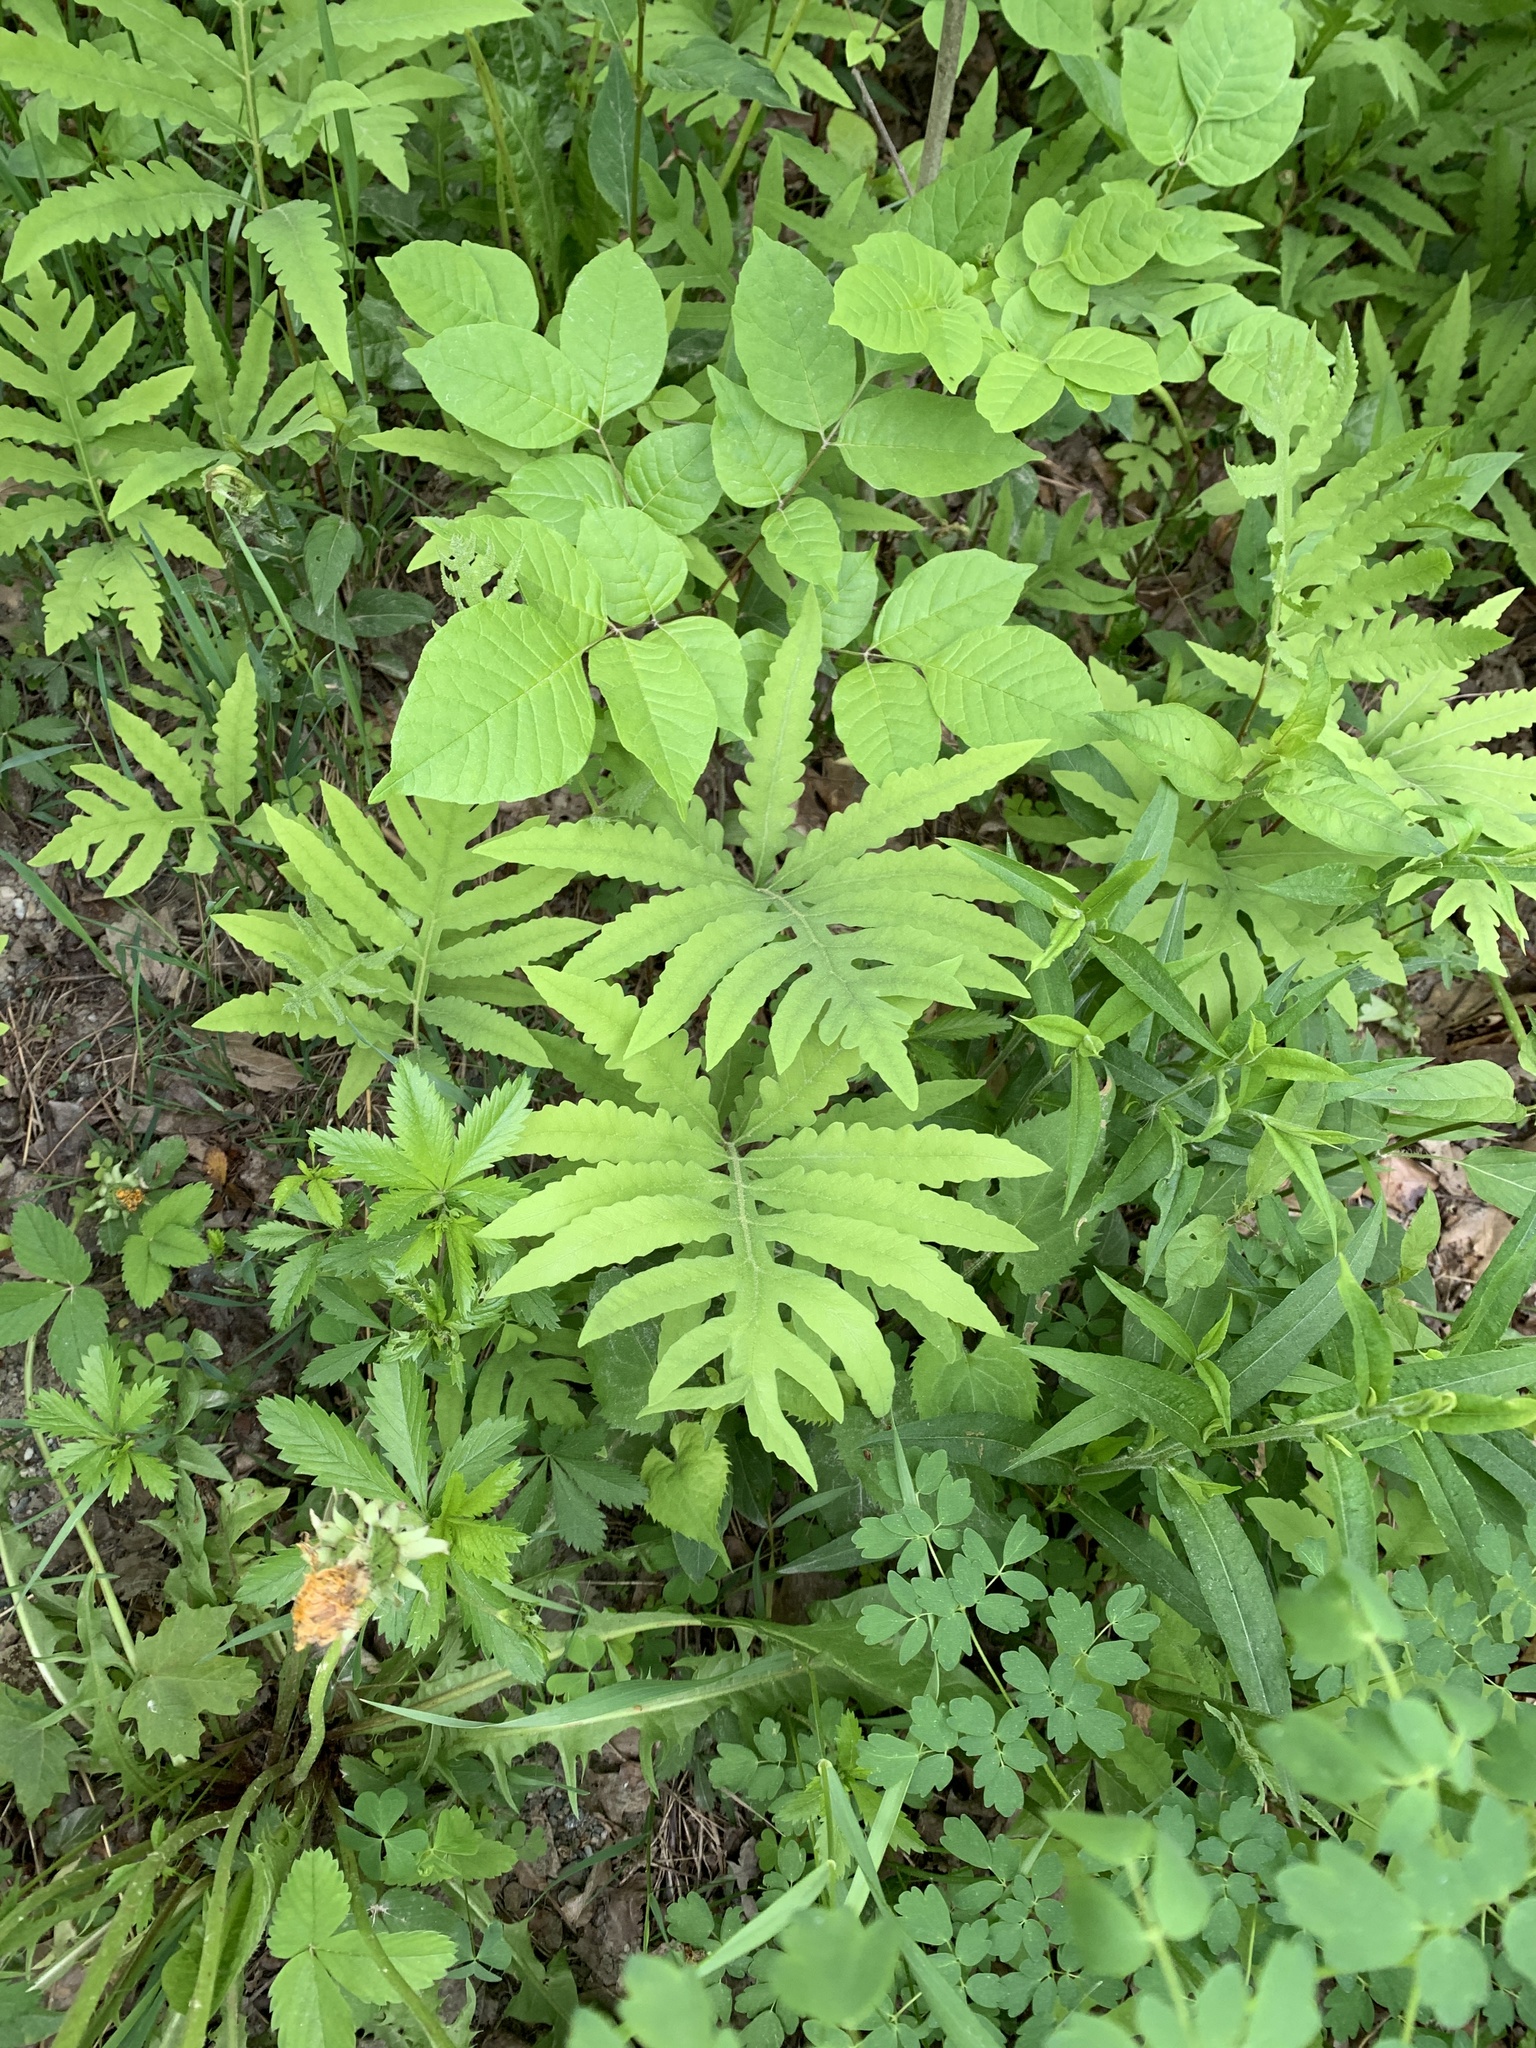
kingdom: Plantae
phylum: Tracheophyta
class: Polypodiopsida
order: Polypodiales
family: Onocleaceae
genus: Onoclea
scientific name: Onoclea sensibilis
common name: Sensitive fern
